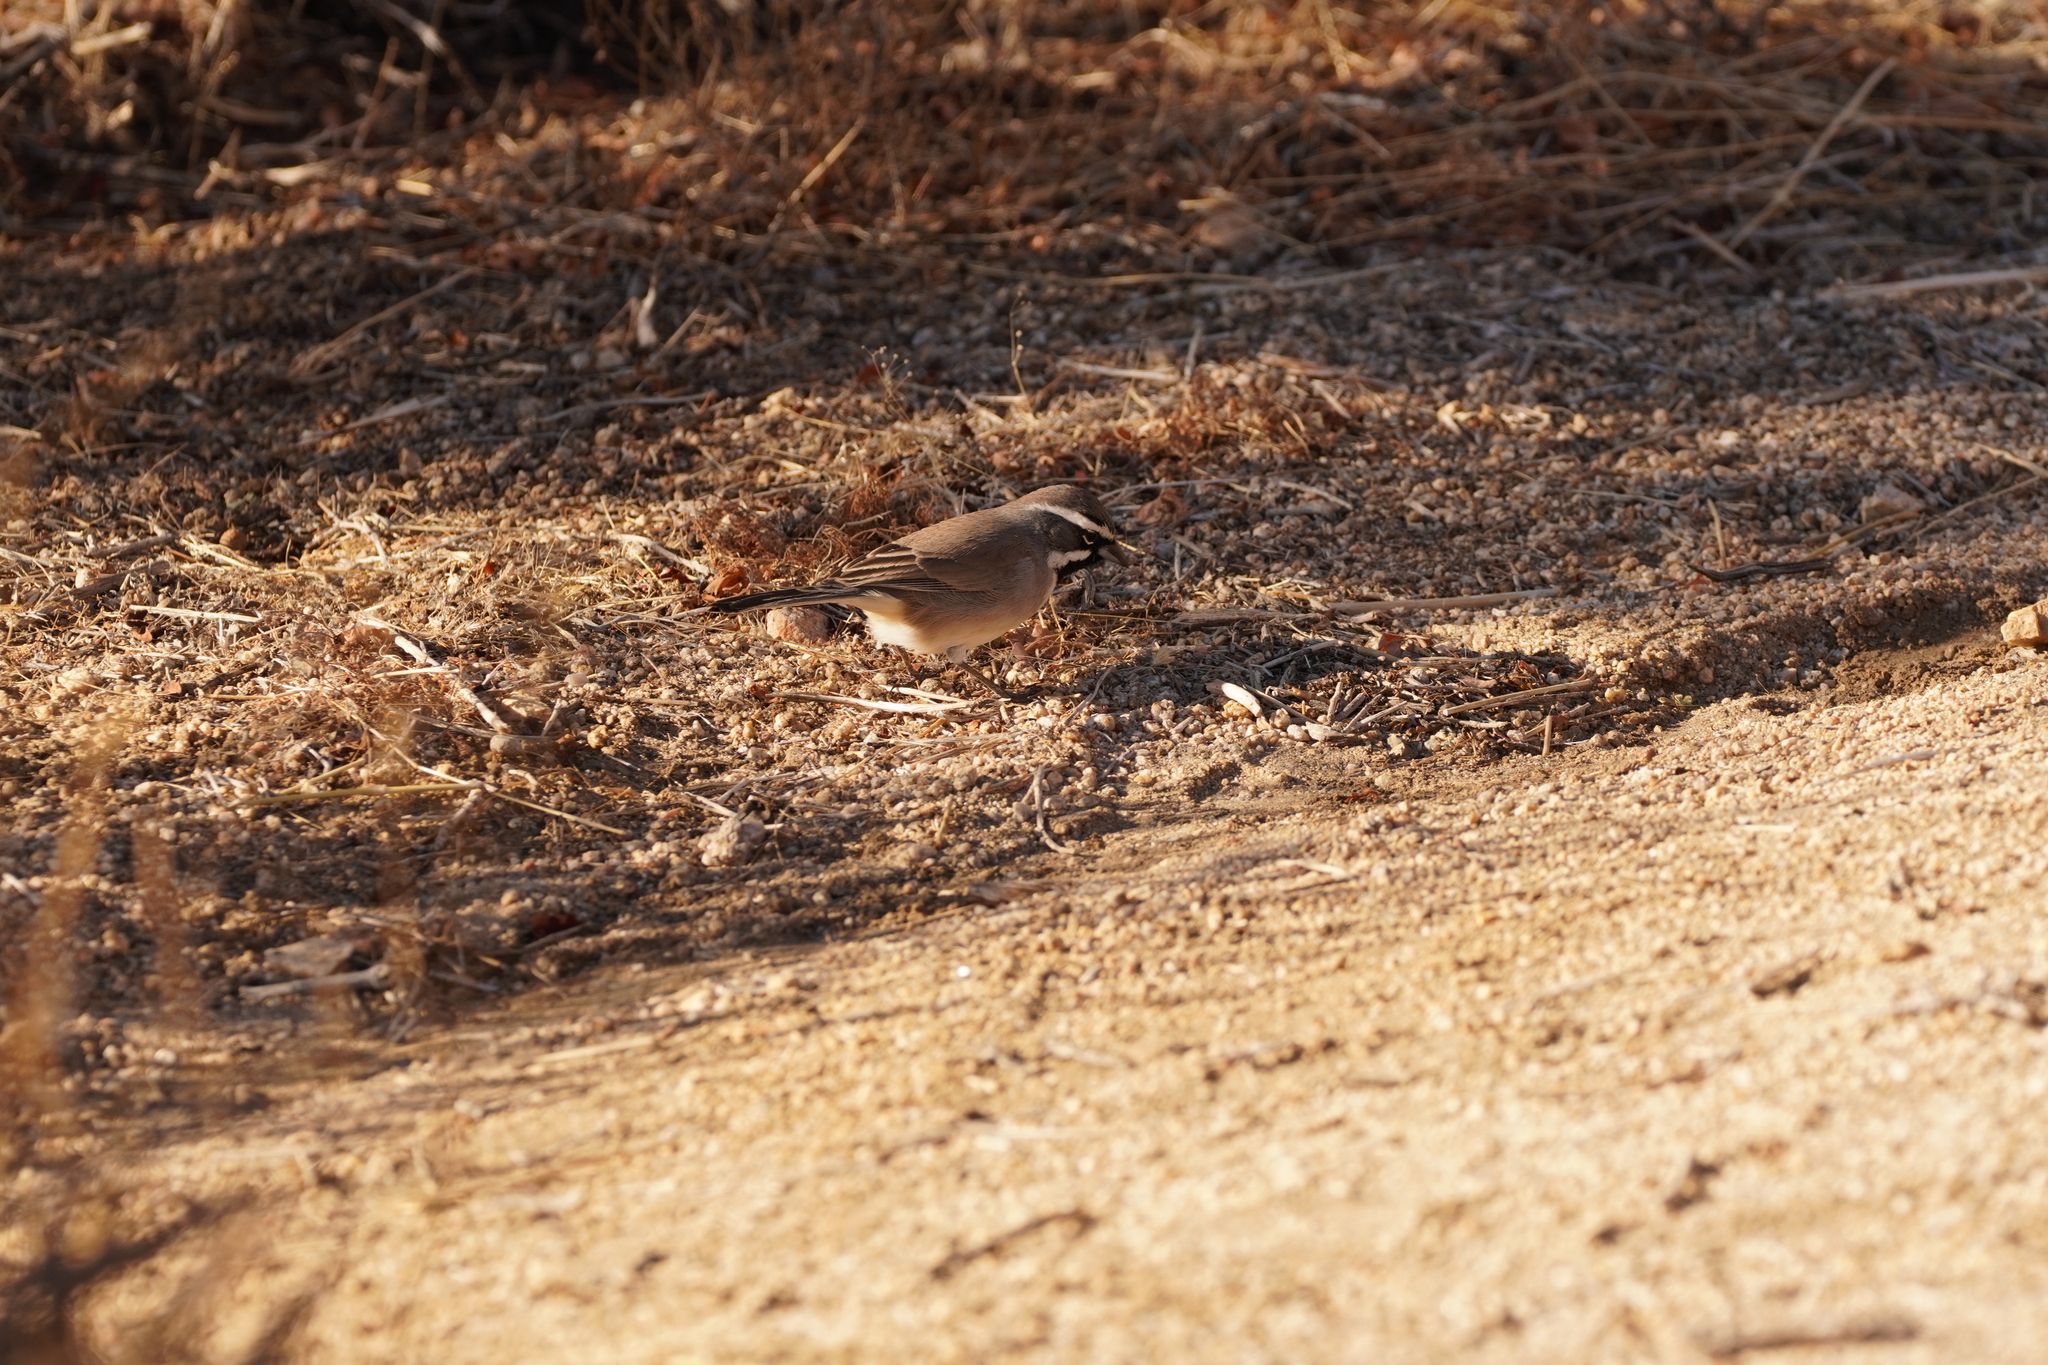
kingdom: Animalia
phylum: Chordata
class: Aves
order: Passeriformes
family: Passerellidae
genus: Amphispiza
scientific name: Amphispiza bilineata
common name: Black-throated sparrow
